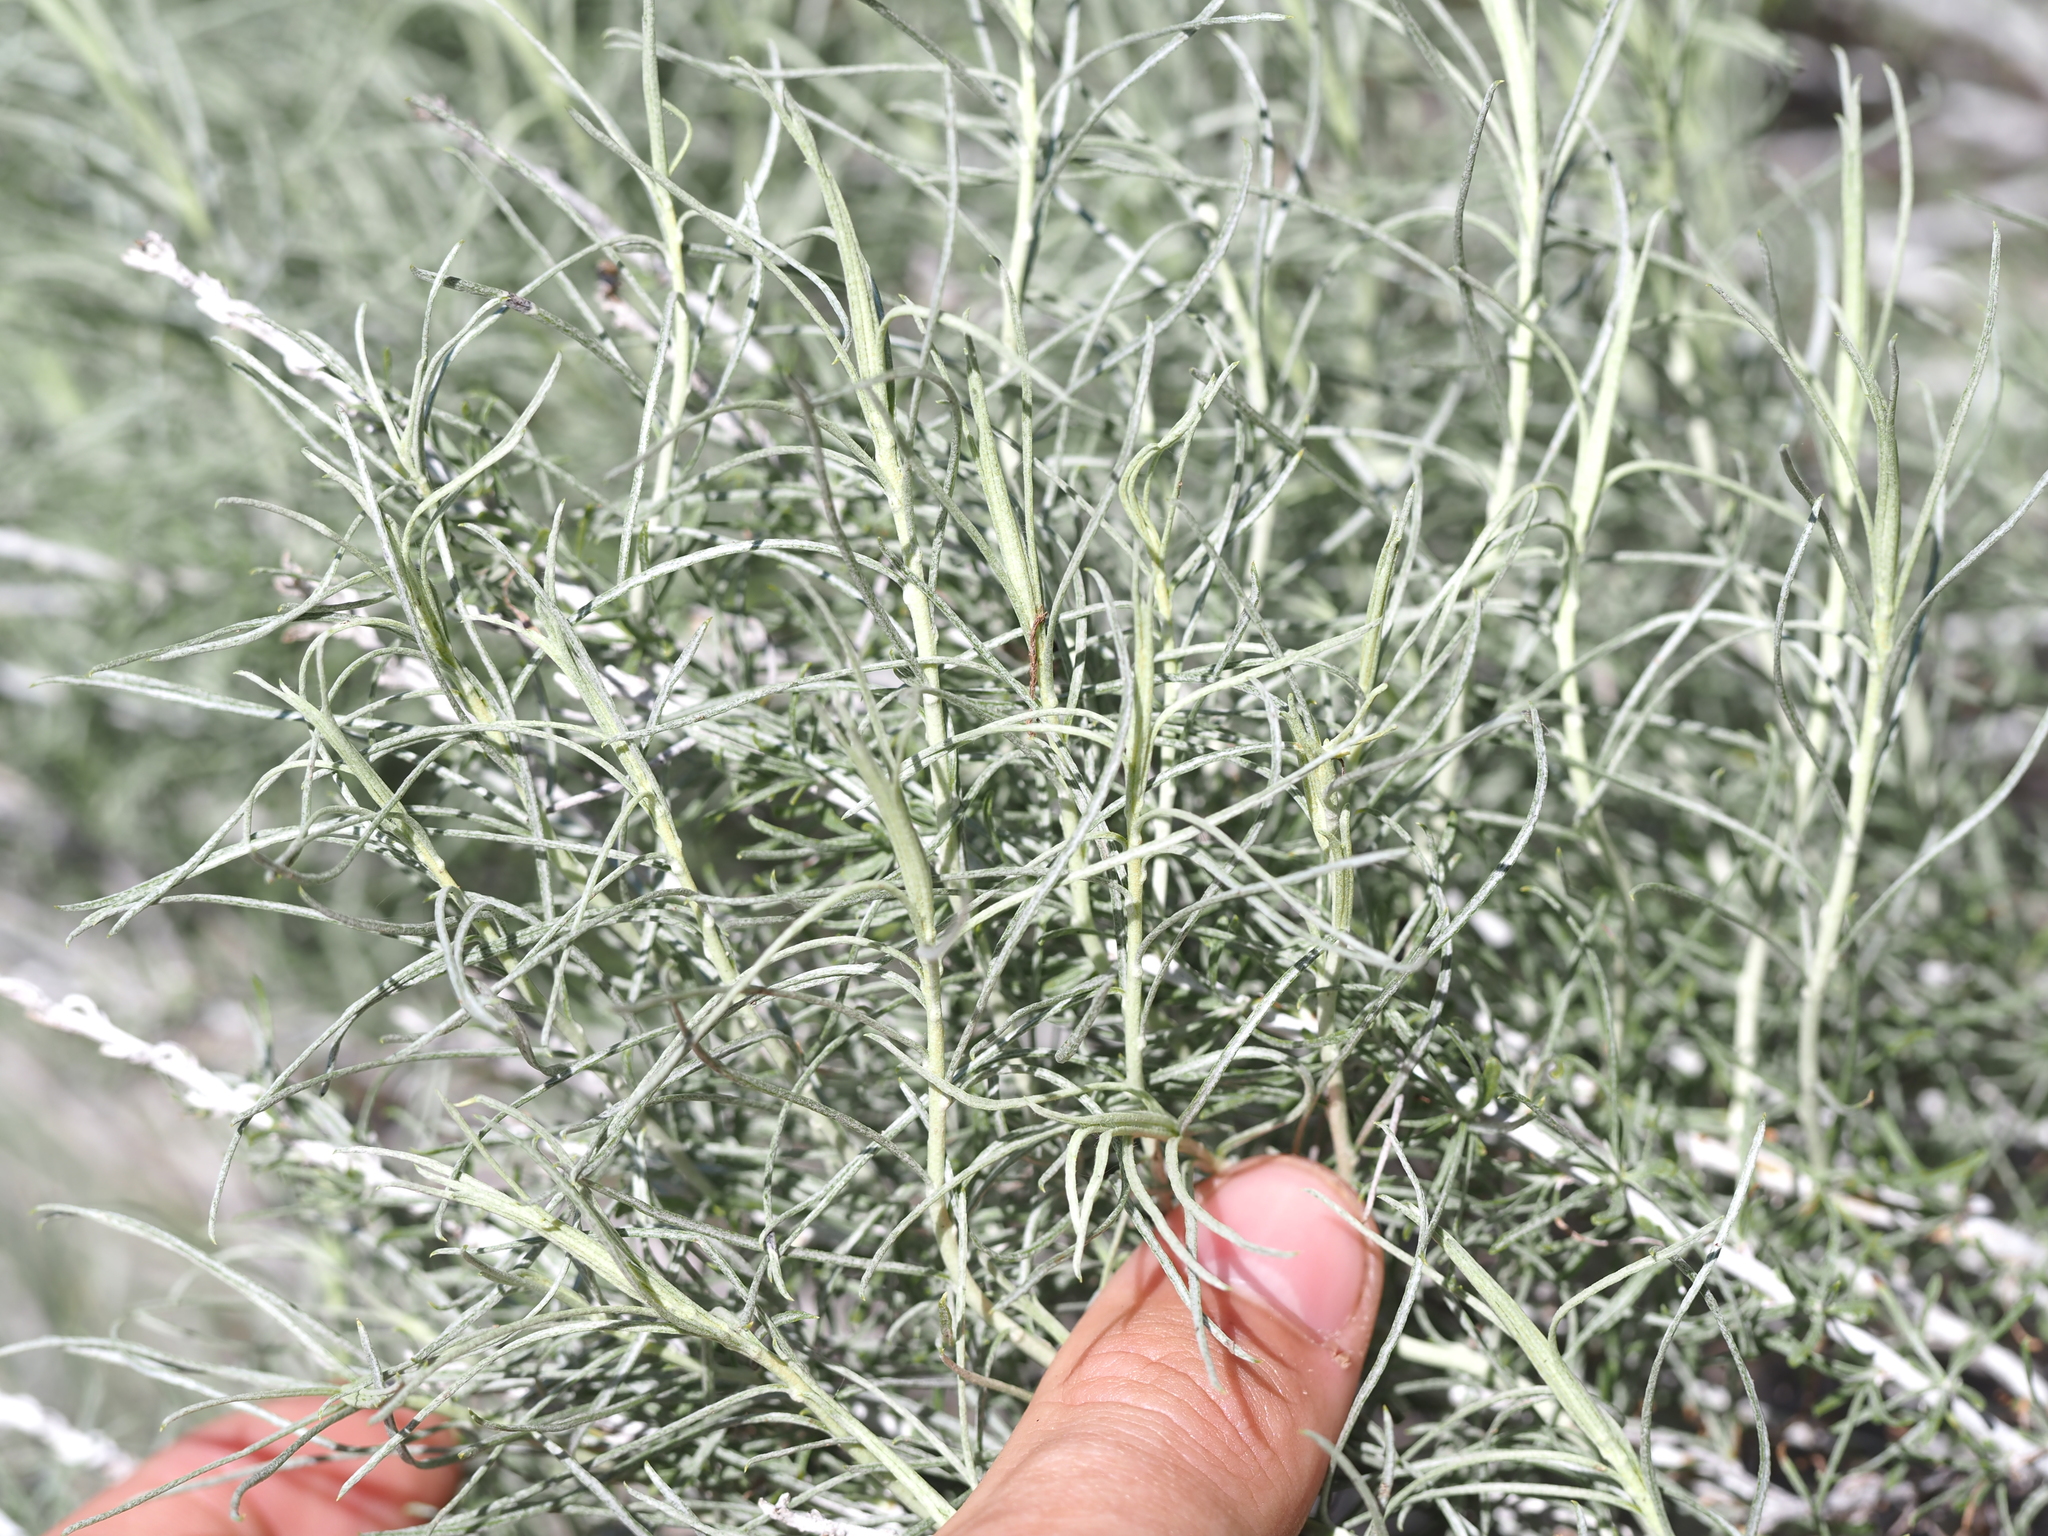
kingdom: Plantae
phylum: Tracheophyta
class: Magnoliopsida
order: Asterales
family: Asteraceae
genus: Ericameria
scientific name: Ericameria nauseosa
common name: Rubber rabbitbrush
